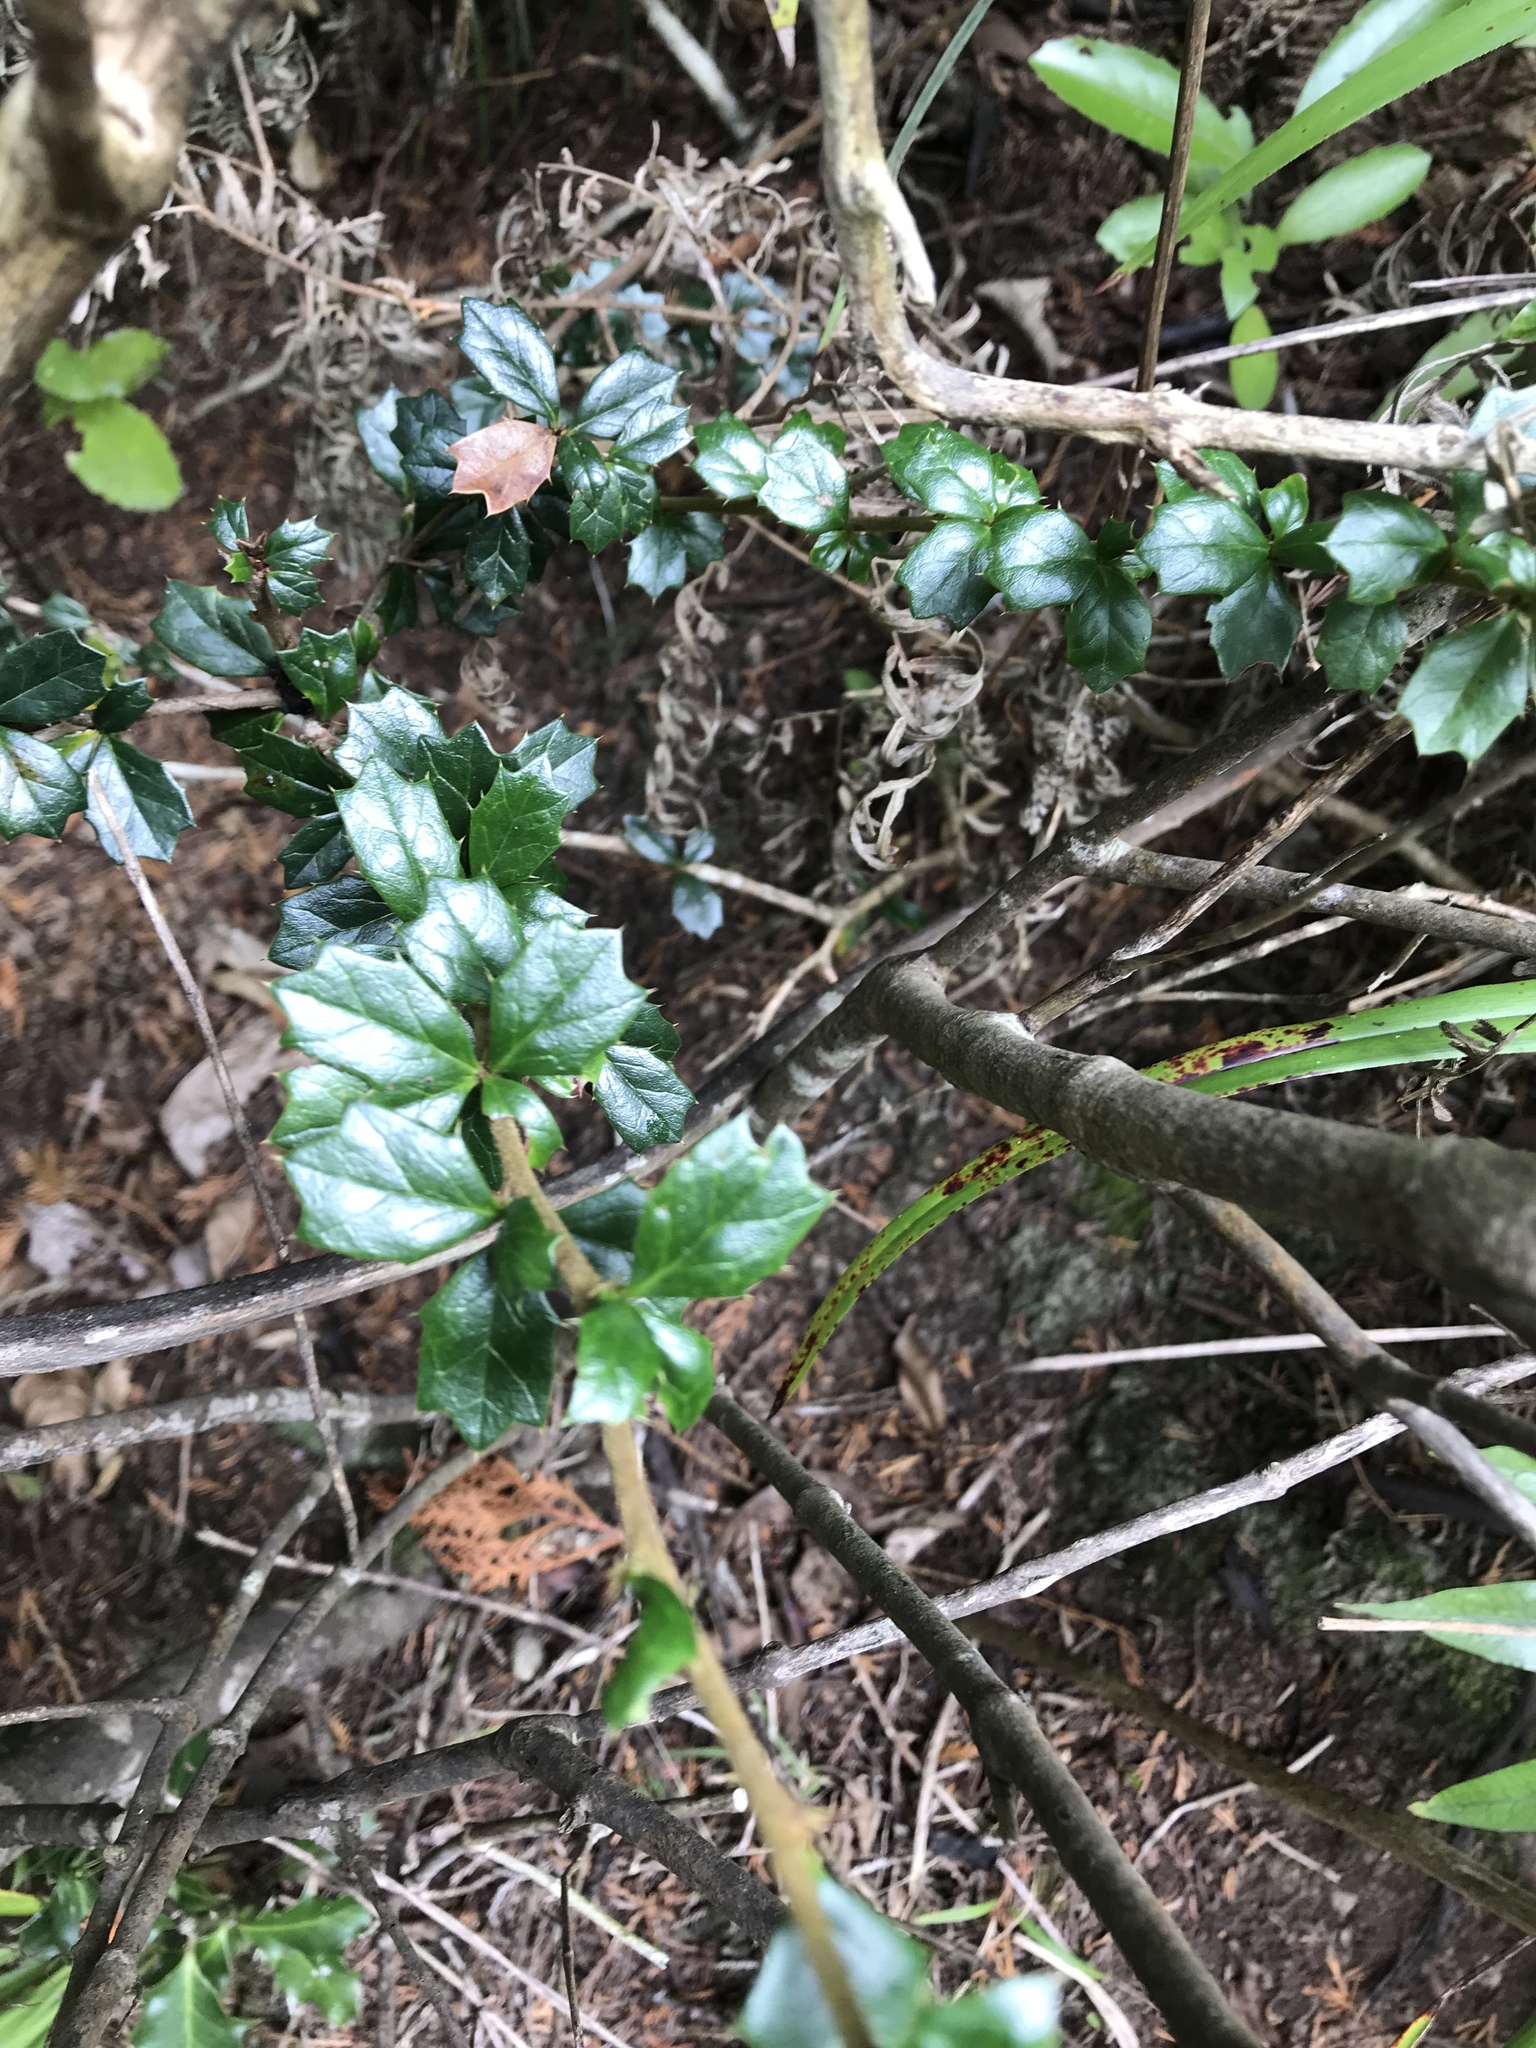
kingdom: Plantae
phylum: Tracheophyta
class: Magnoliopsida
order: Ranunculales
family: Berberidaceae
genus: Berberis
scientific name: Berberis darwinii
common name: Darwin's barberry
